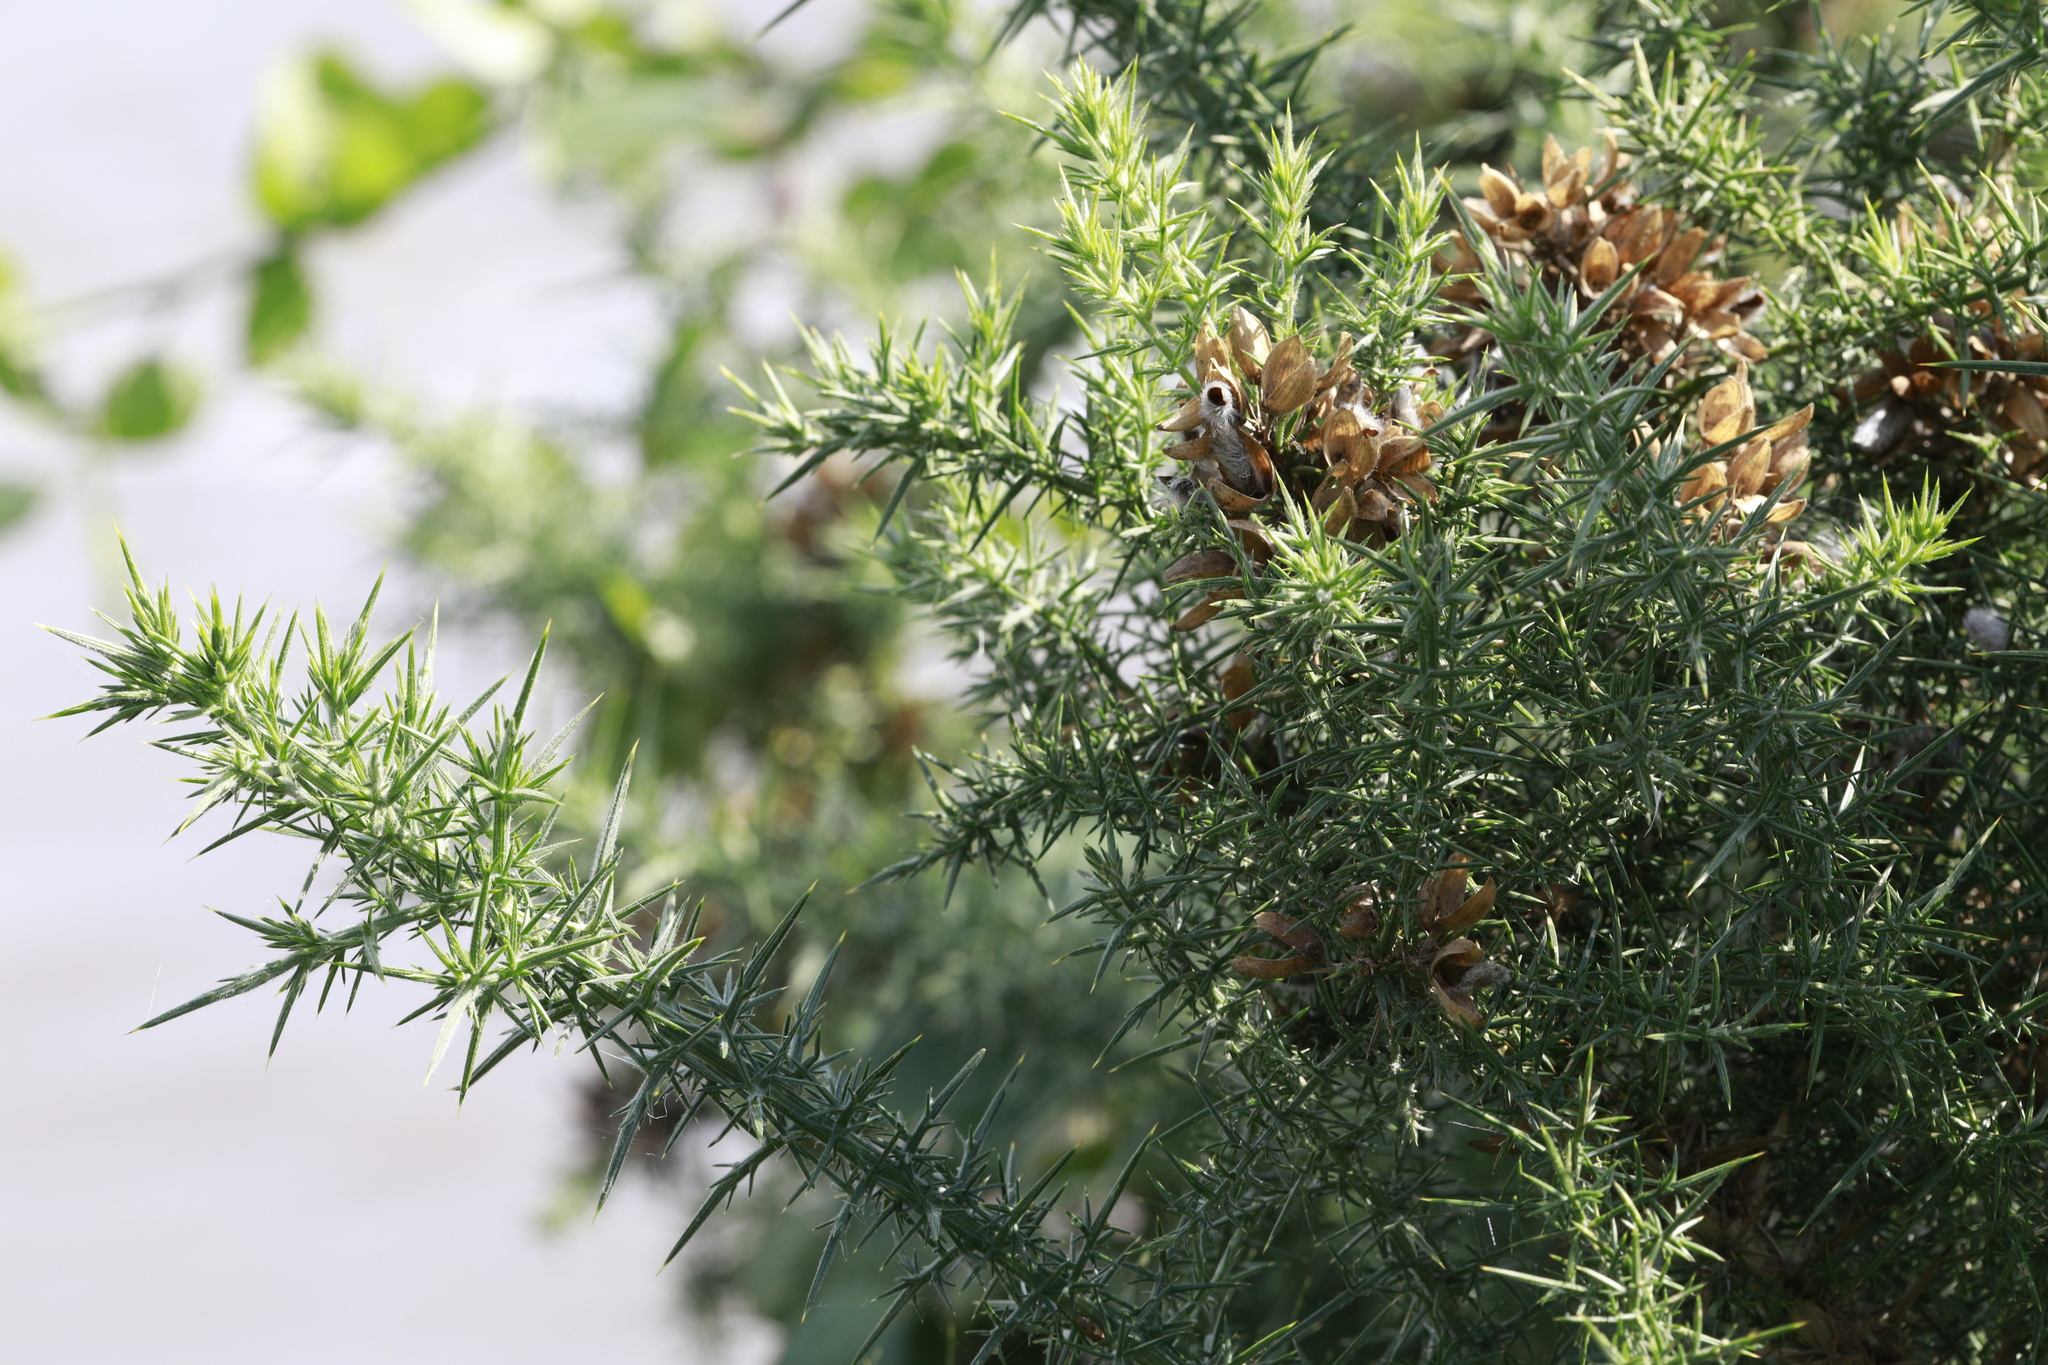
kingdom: Plantae
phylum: Tracheophyta
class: Magnoliopsida
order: Fabales
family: Fabaceae
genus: Ulex
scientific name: Ulex europaeus
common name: Common gorse
